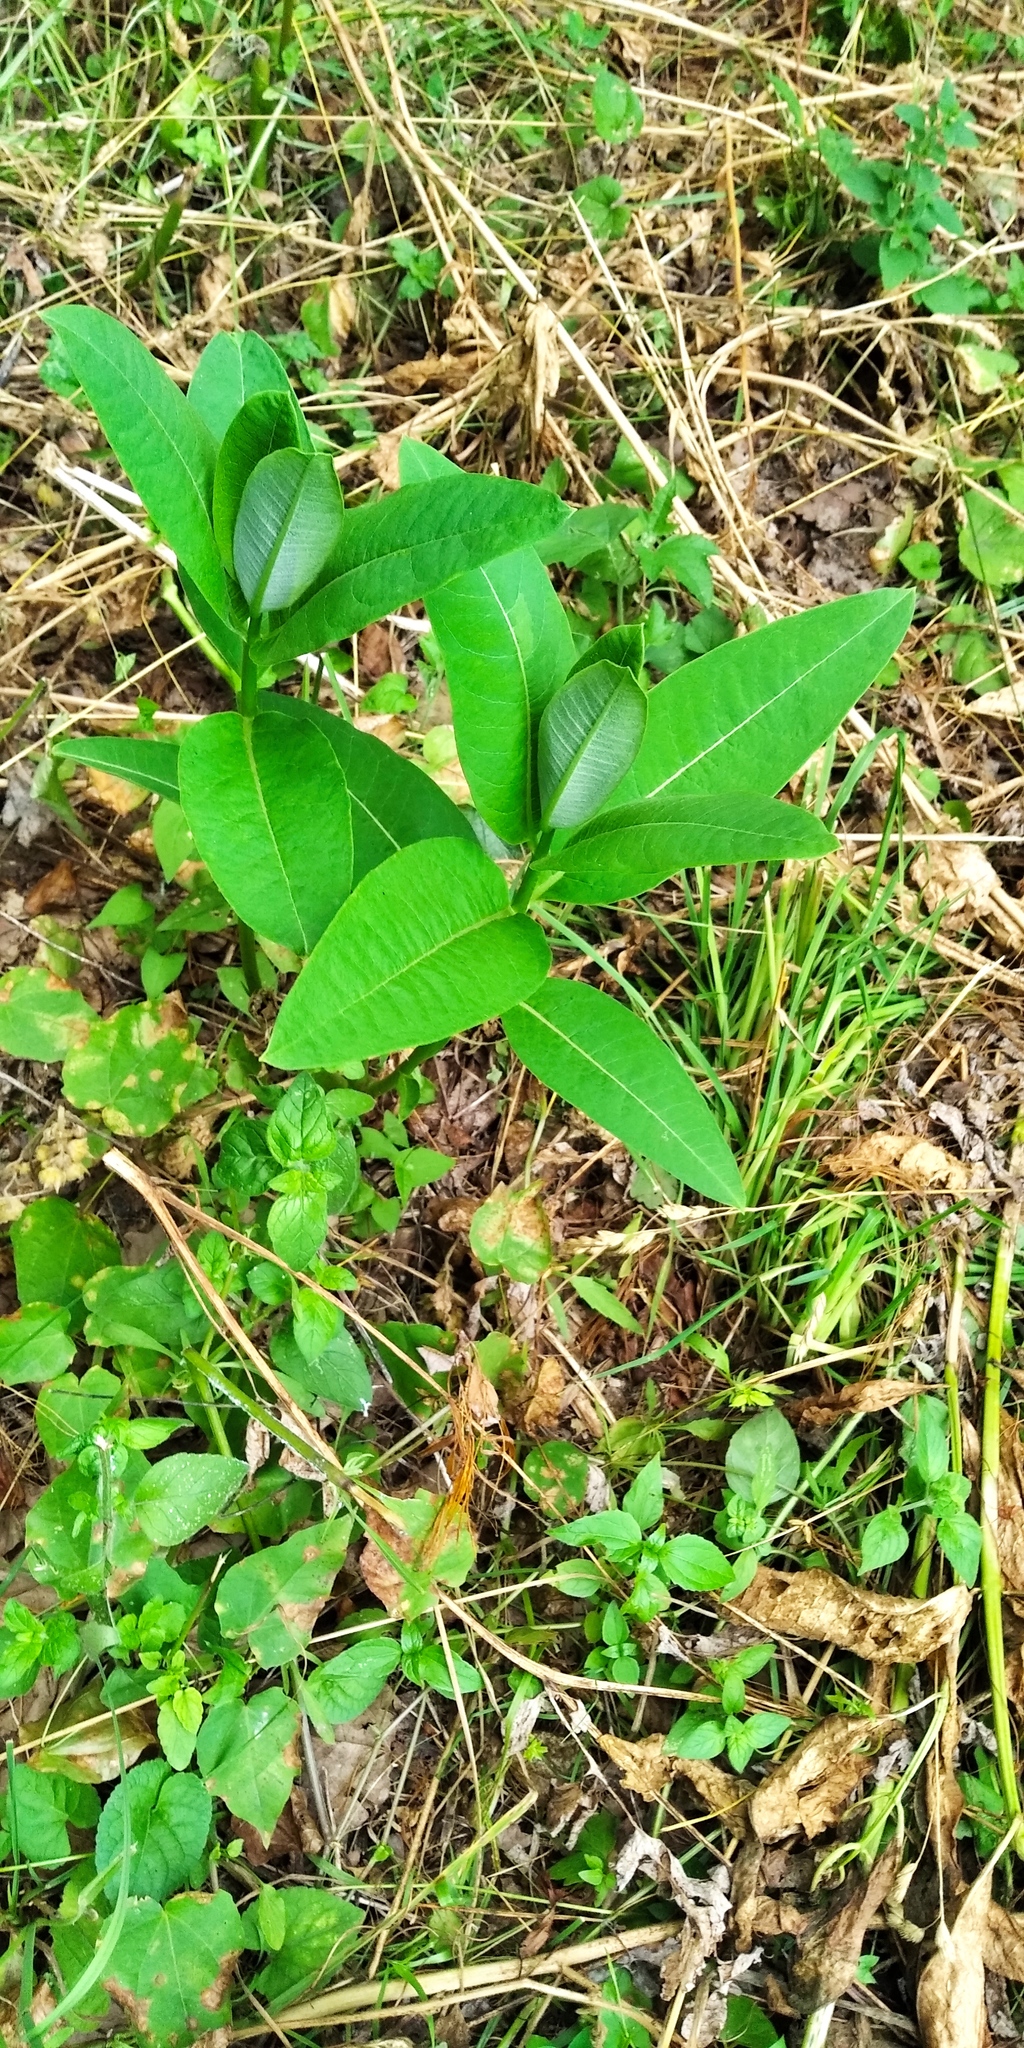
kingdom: Plantae
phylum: Tracheophyta
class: Magnoliopsida
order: Gentianales
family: Apocynaceae
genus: Asclepias
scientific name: Asclepias syriaca
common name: Common milkweed
